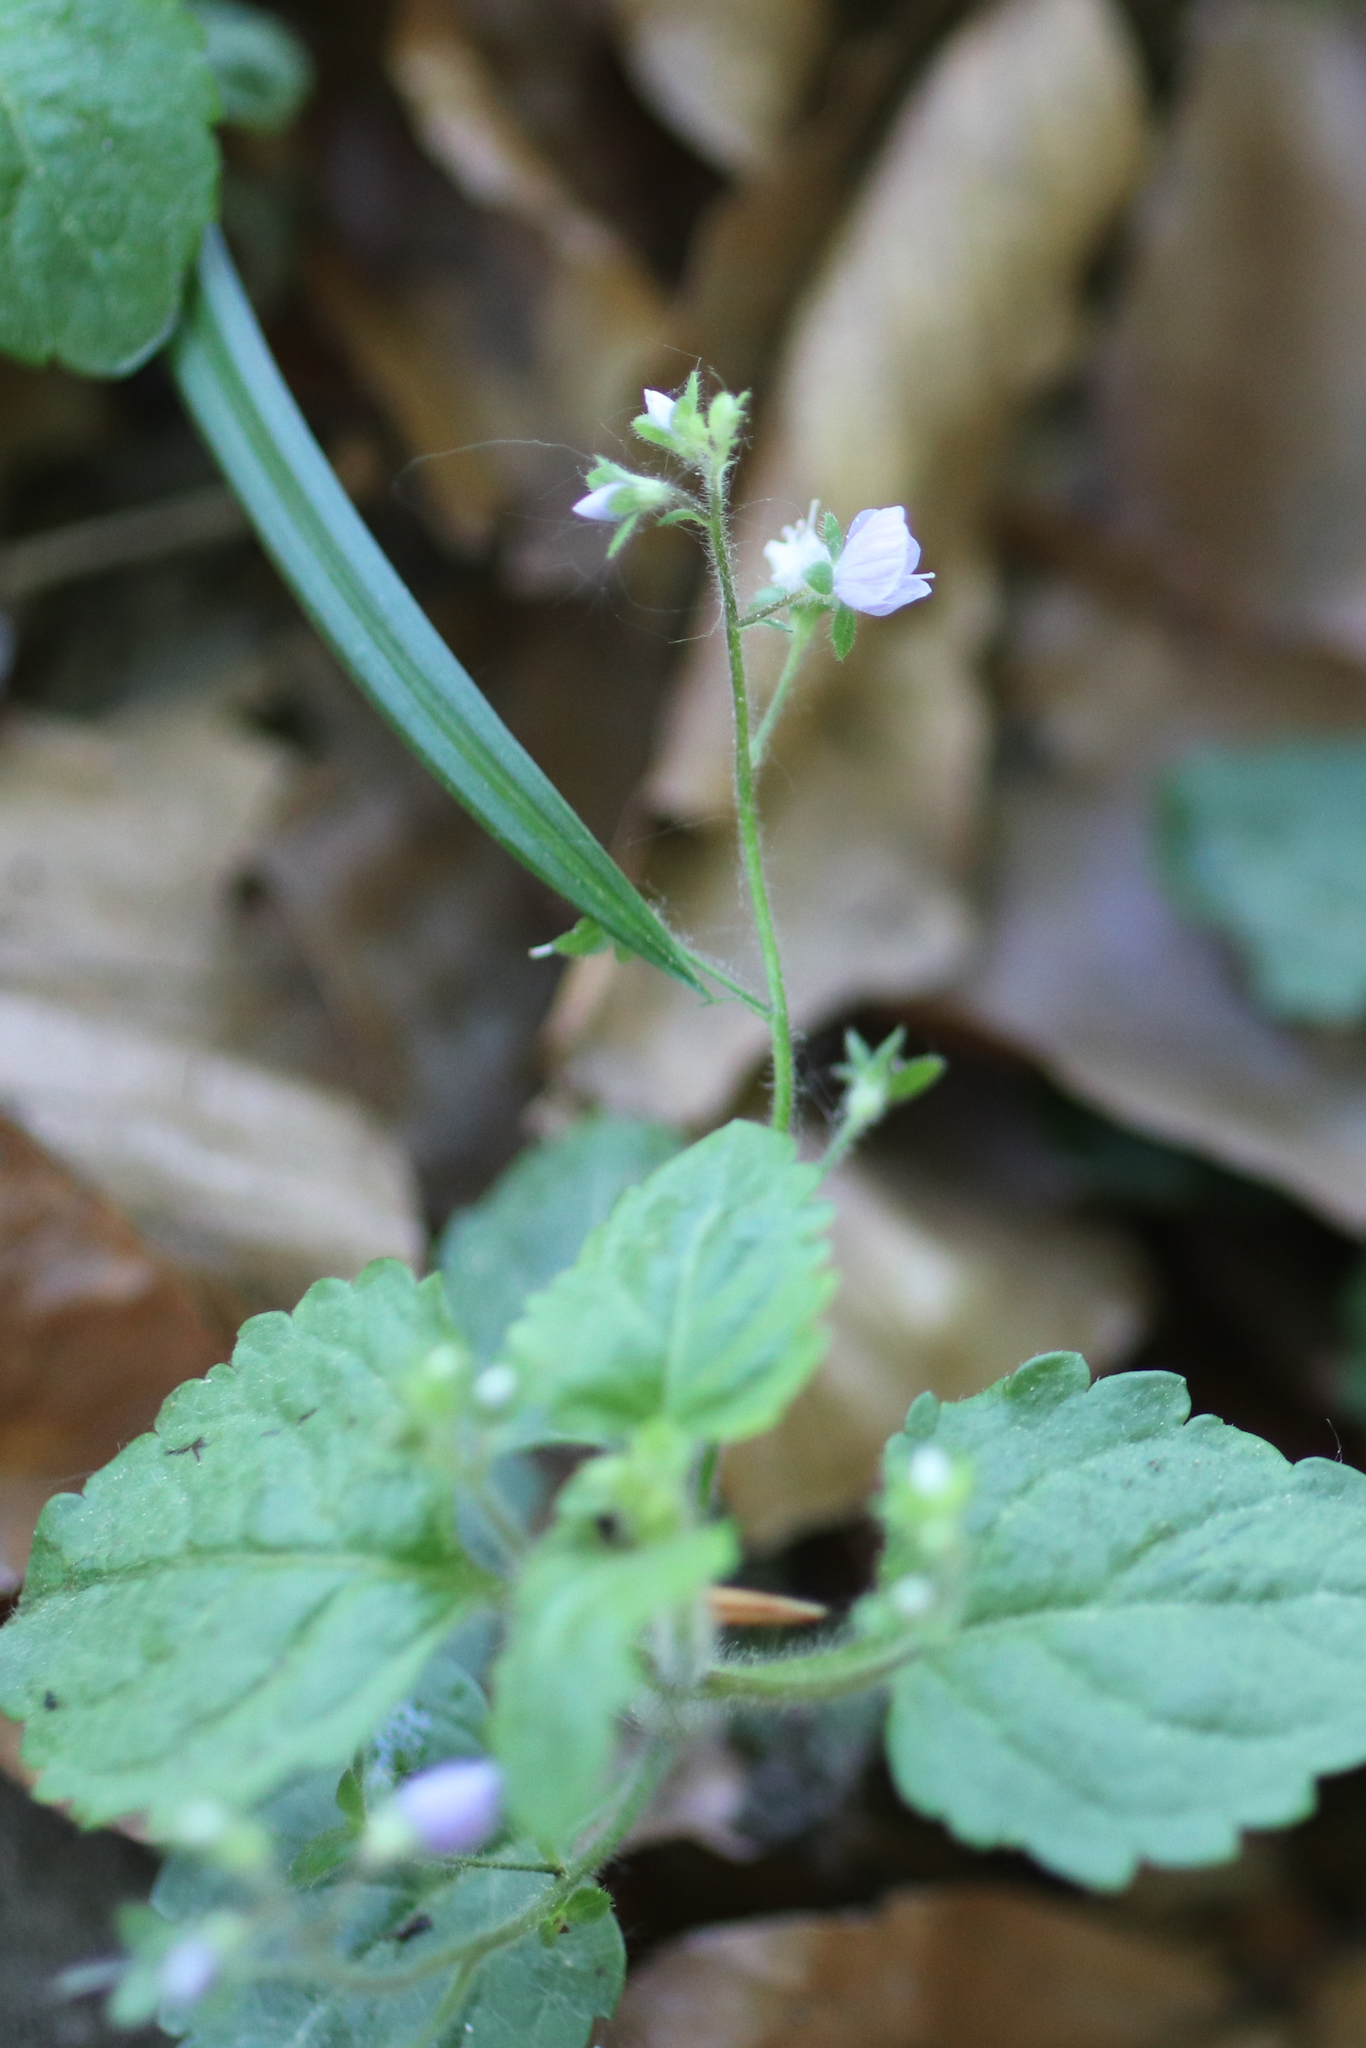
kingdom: Plantae
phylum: Tracheophyta
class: Magnoliopsida
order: Lamiales
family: Plantaginaceae
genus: Veronica
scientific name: Veronica montana
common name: Wood speedwell
